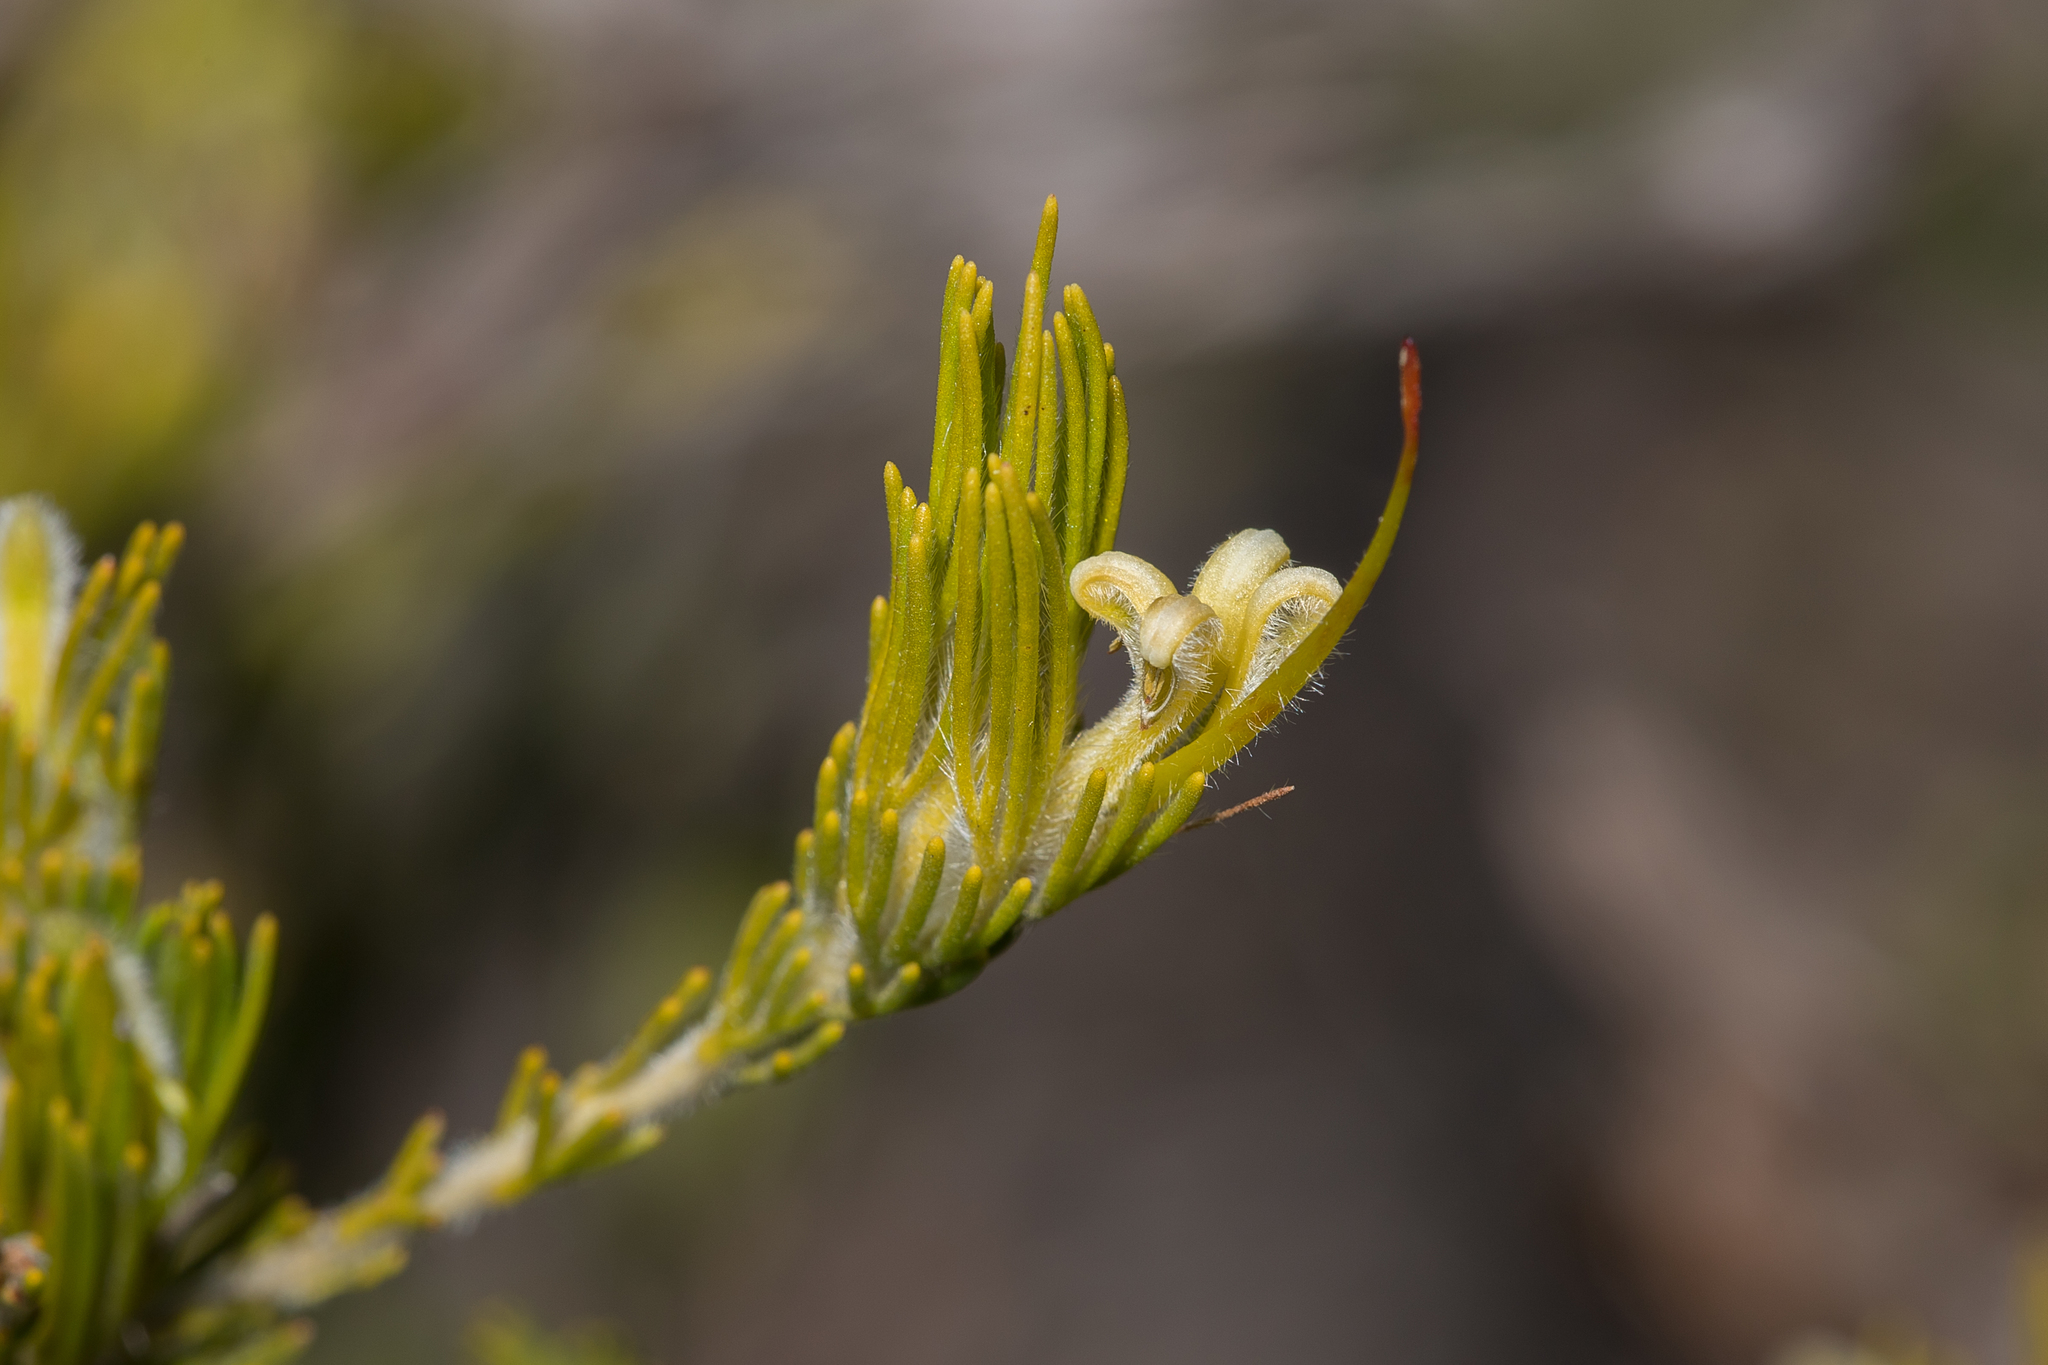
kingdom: Plantae
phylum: Tracheophyta
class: Magnoliopsida
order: Proteales
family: Proteaceae
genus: Adenanthos
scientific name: Adenanthos terminalis
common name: Yellow gland-flower
